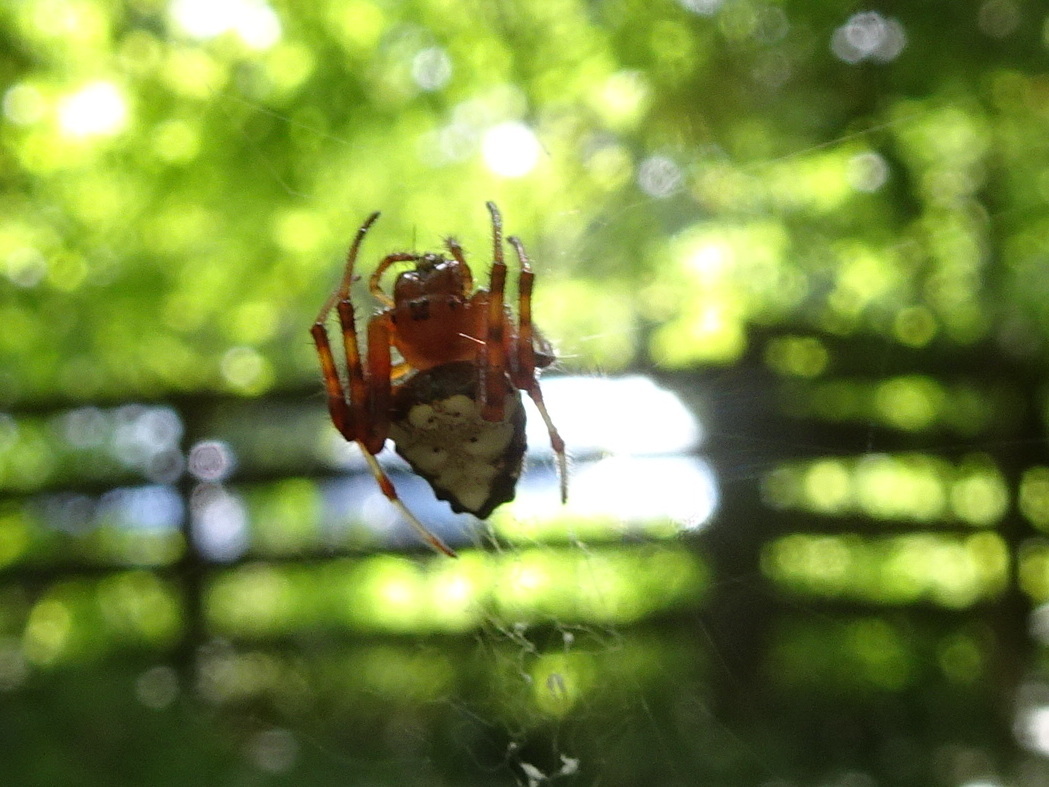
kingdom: Animalia
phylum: Arthropoda
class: Arachnida
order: Araneae
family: Araneidae
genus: Verrucosa
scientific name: Verrucosa arenata
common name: Orb weavers
